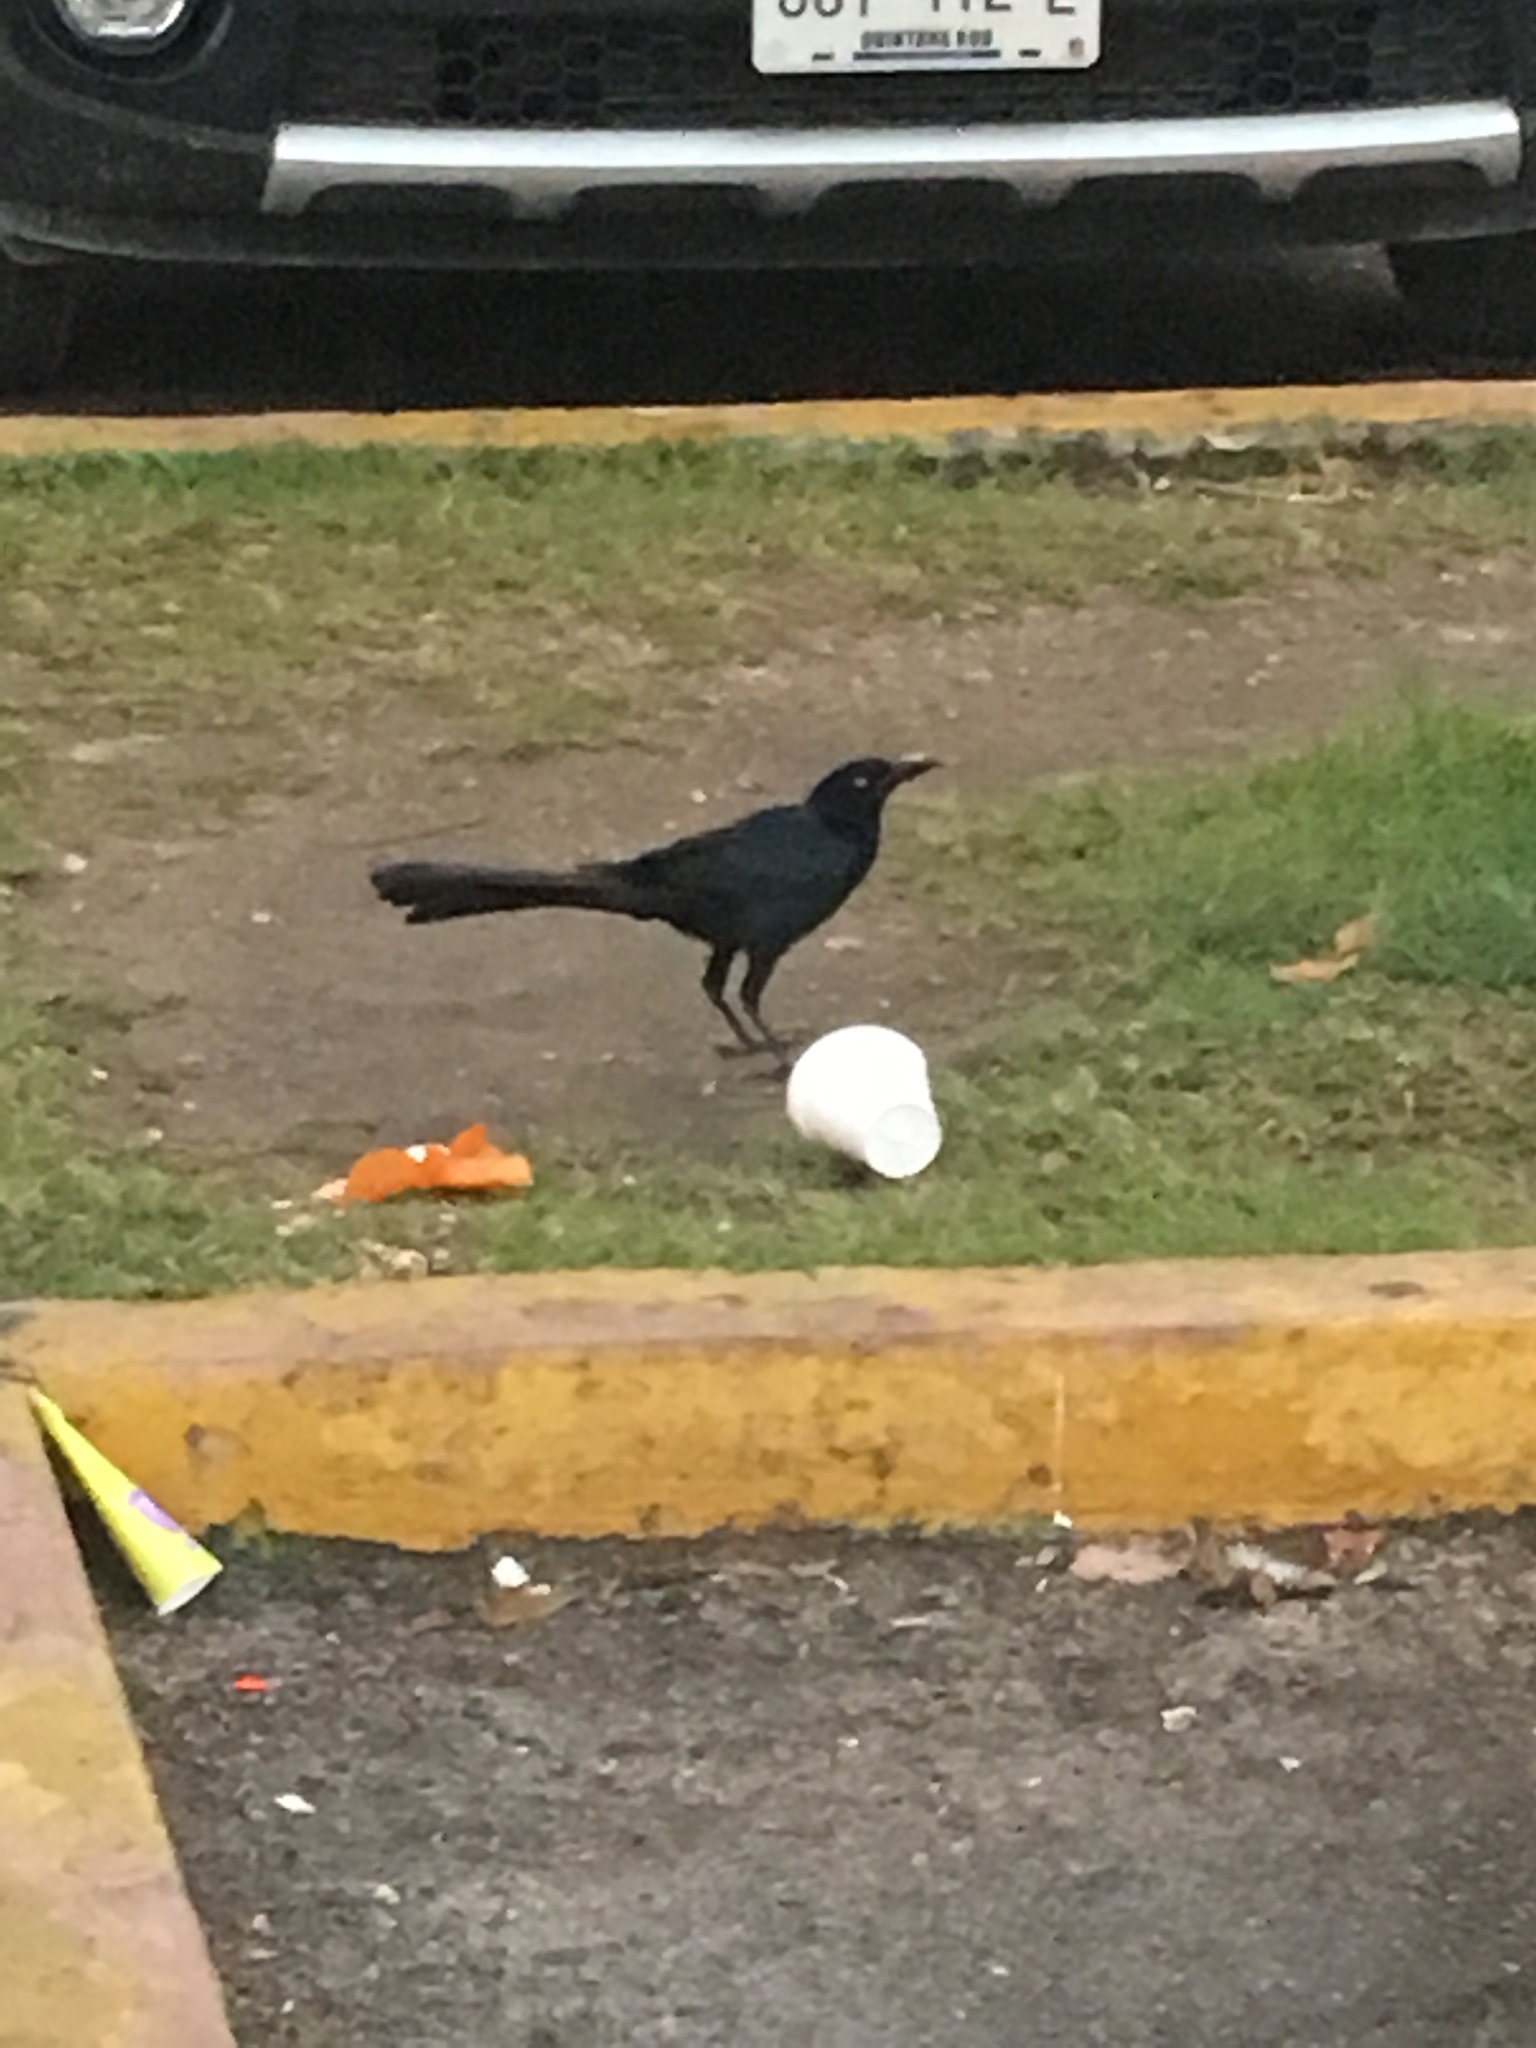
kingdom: Animalia
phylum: Chordata
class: Aves
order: Passeriformes
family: Icteridae
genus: Quiscalus
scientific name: Quiscalus mexicanus
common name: Great-tailed grackle
